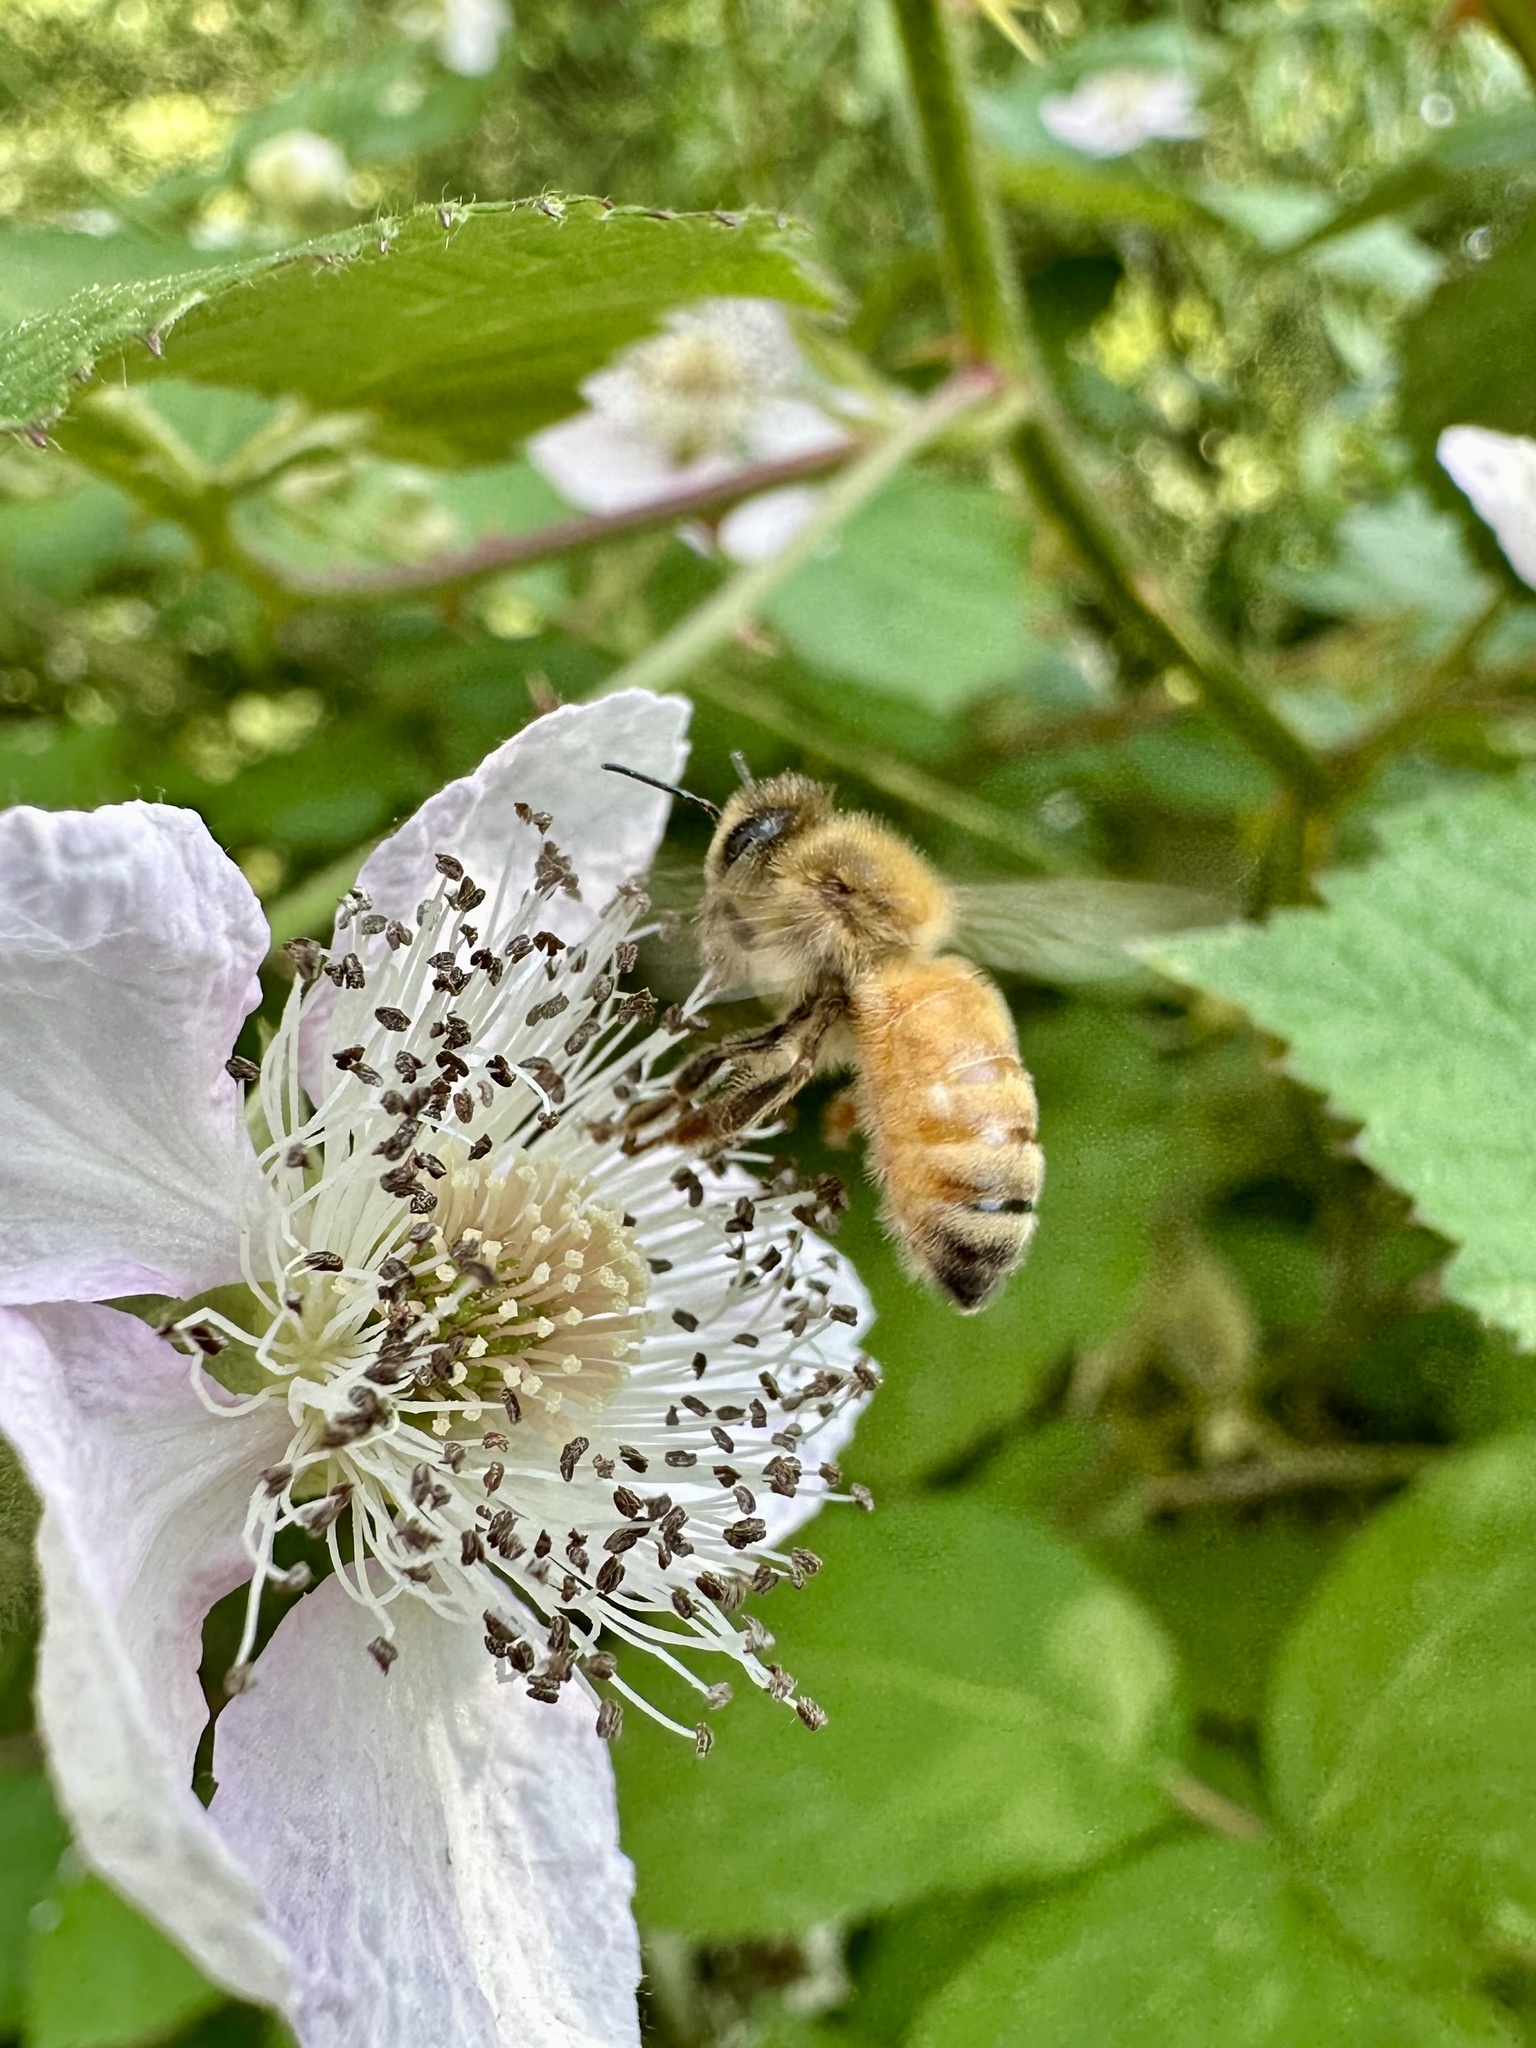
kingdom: Animalia
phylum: Arthropoda
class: Insecta
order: Hymenoptera
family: Apidae
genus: Apis
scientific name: Apis mellifera
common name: Honey bee
